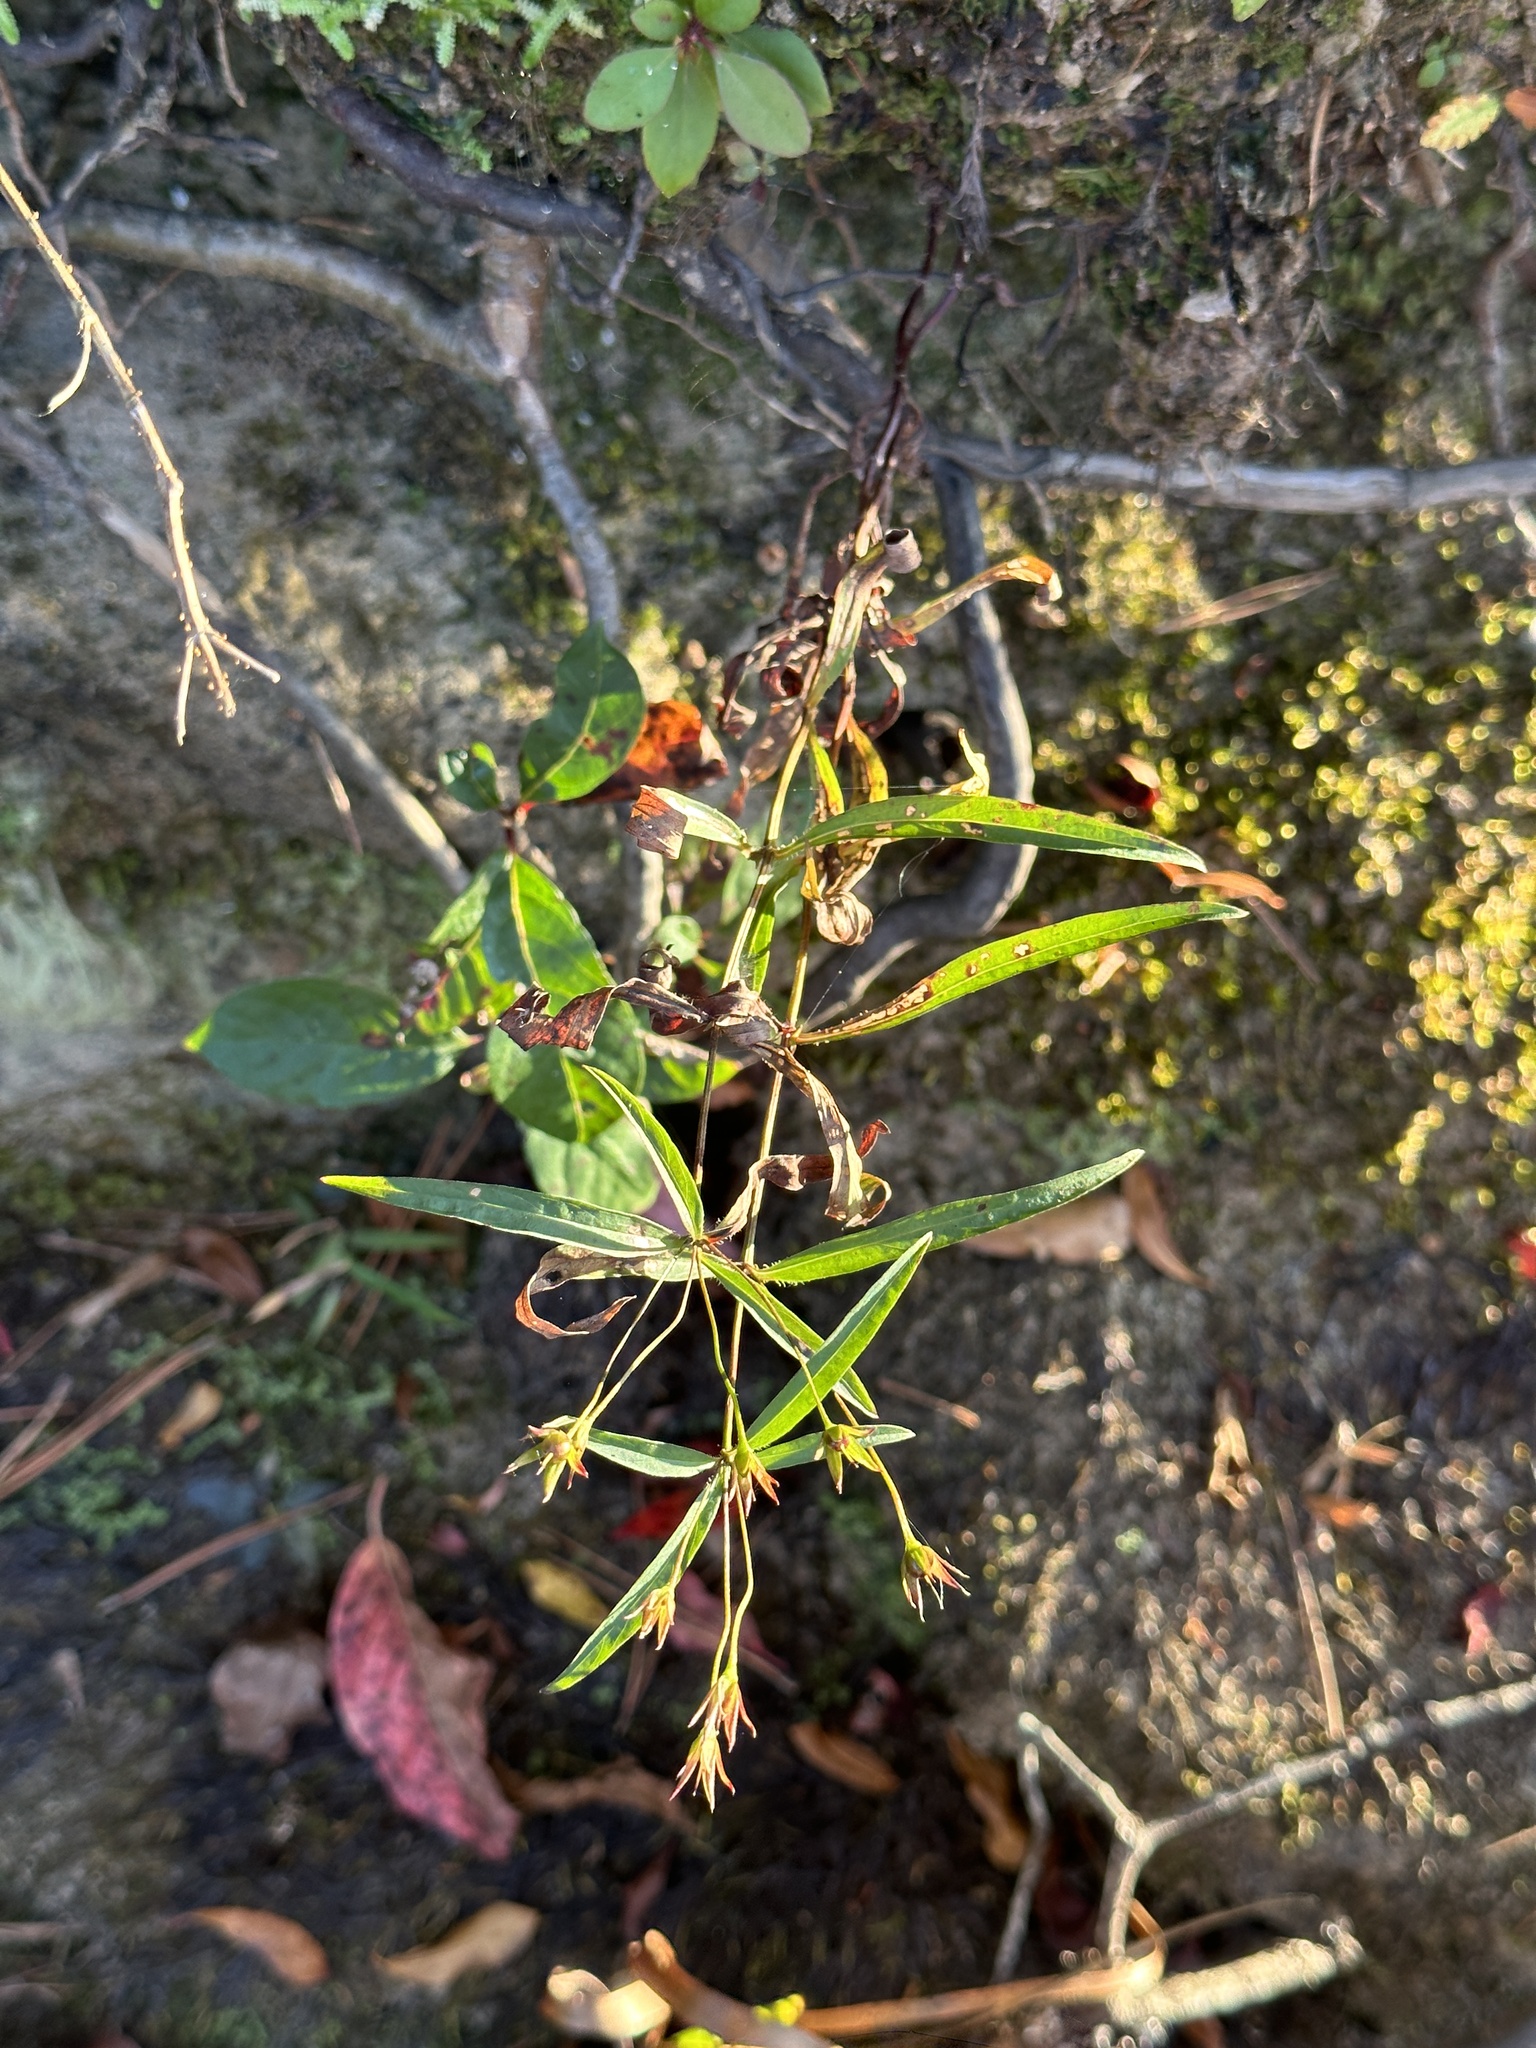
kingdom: Plantae
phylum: Tracheophyta
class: Magnoliopsida
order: Ericales
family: Primulaceae
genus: Lysimachia
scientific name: Lysimachia lanceolata
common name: Lance-leaved loosestrife
